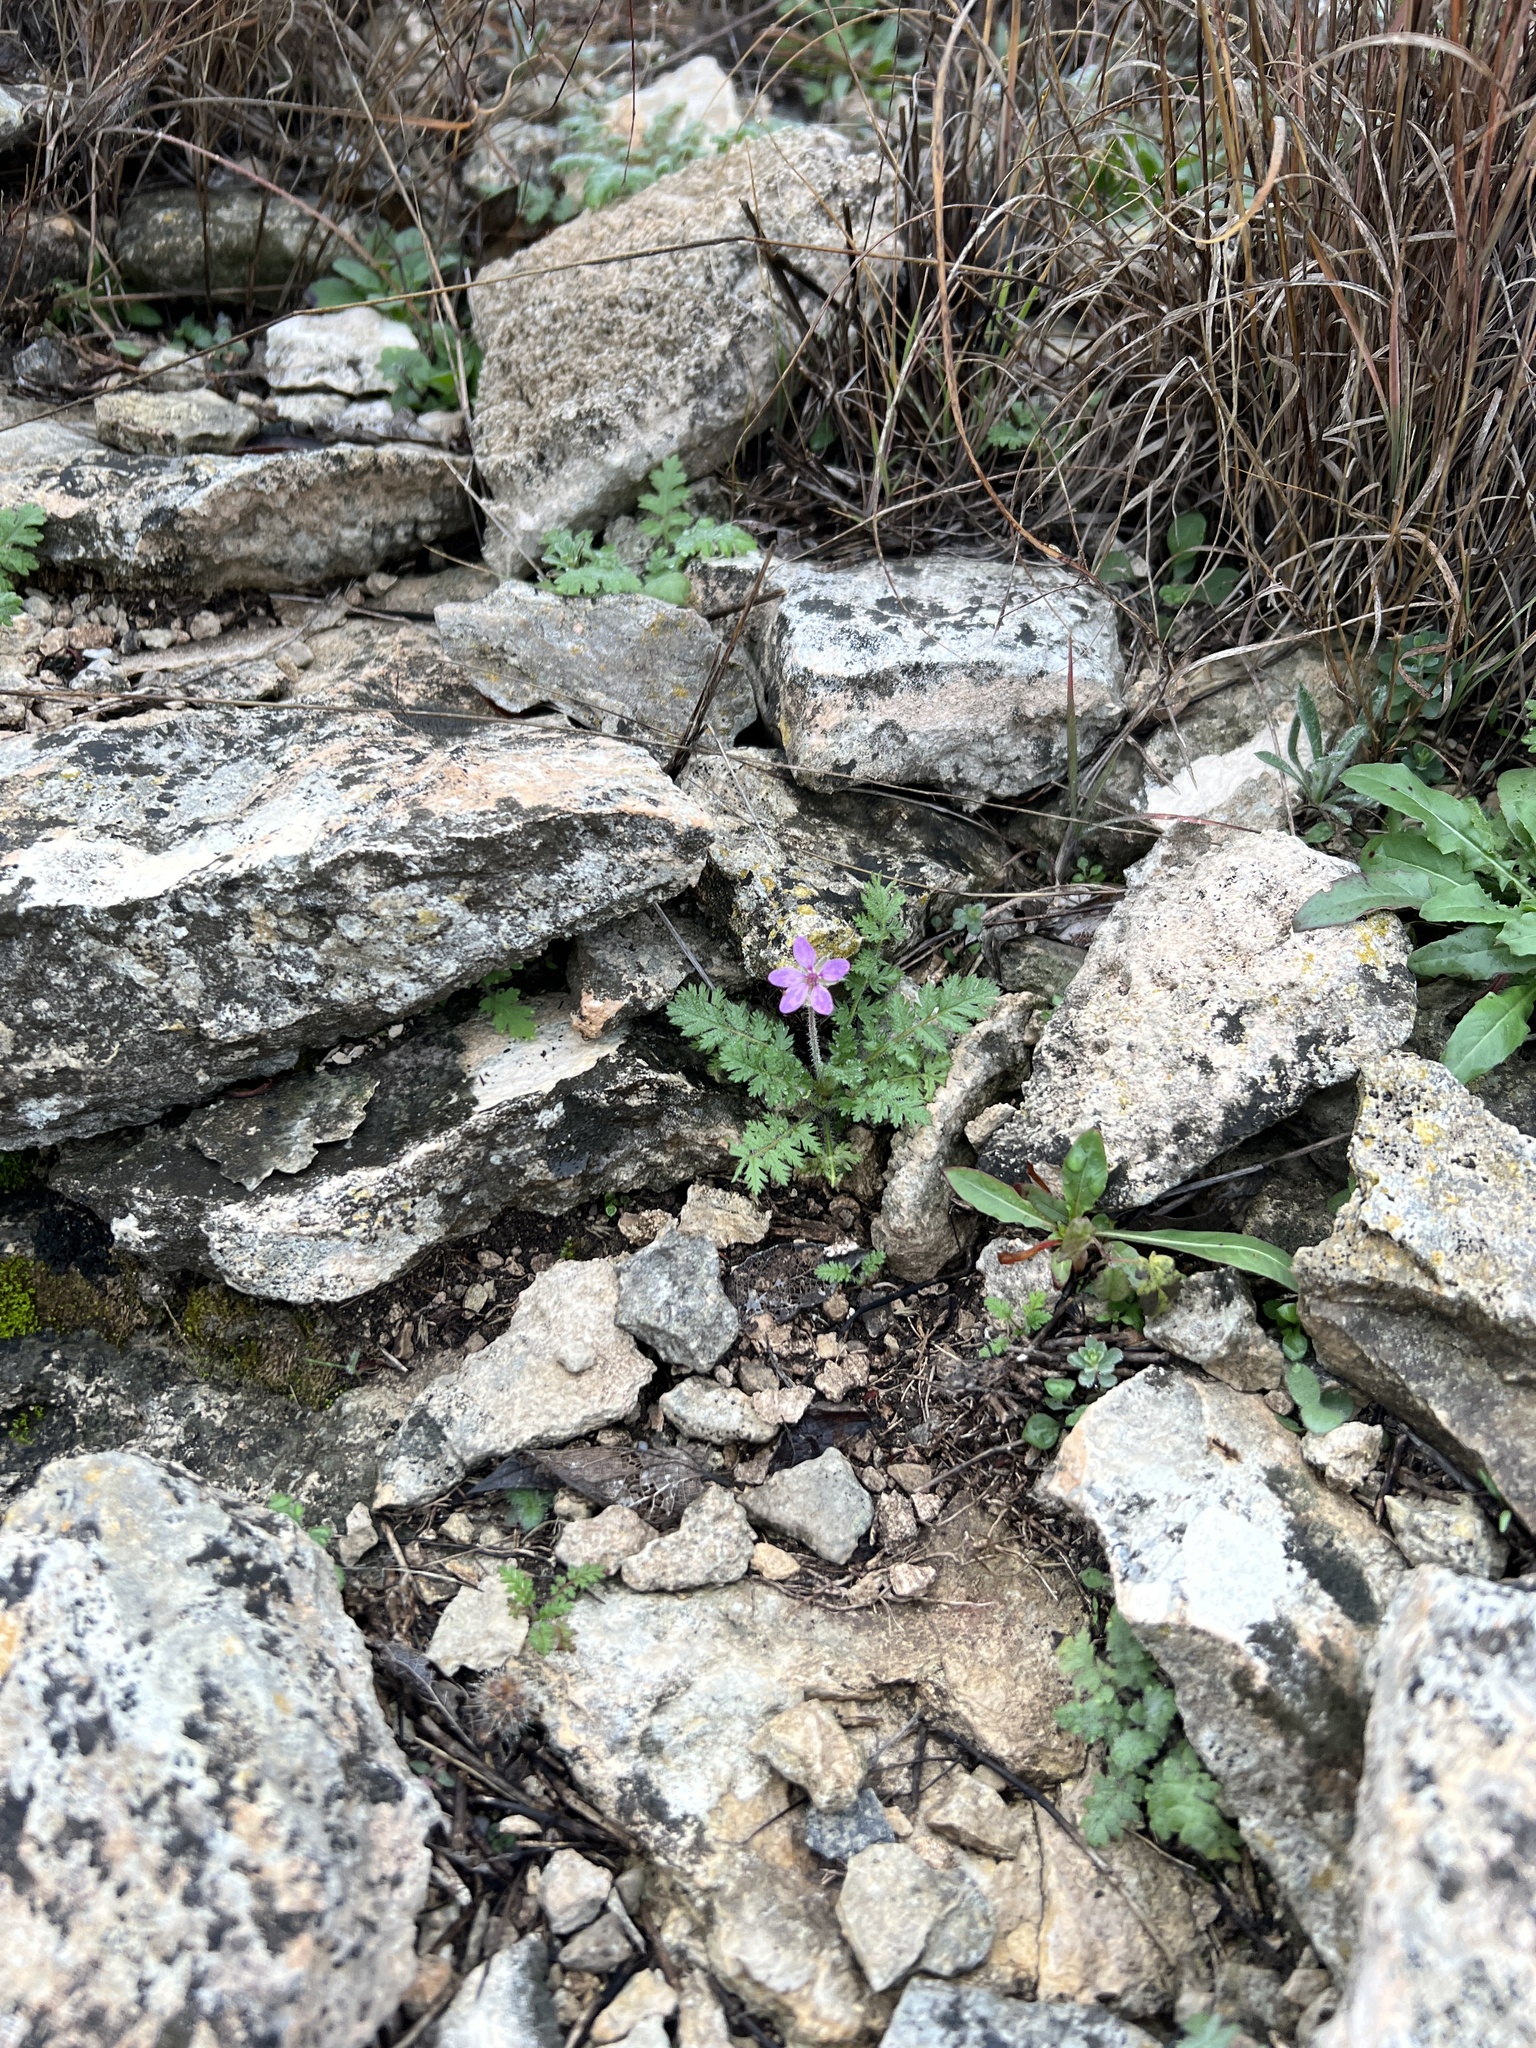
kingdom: Plantae
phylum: Tracheophyta
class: Magnoliopsida
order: Geraniales
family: Geraniaceae
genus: Erodium
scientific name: Erodium cicutarium
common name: Common stork's-bill
